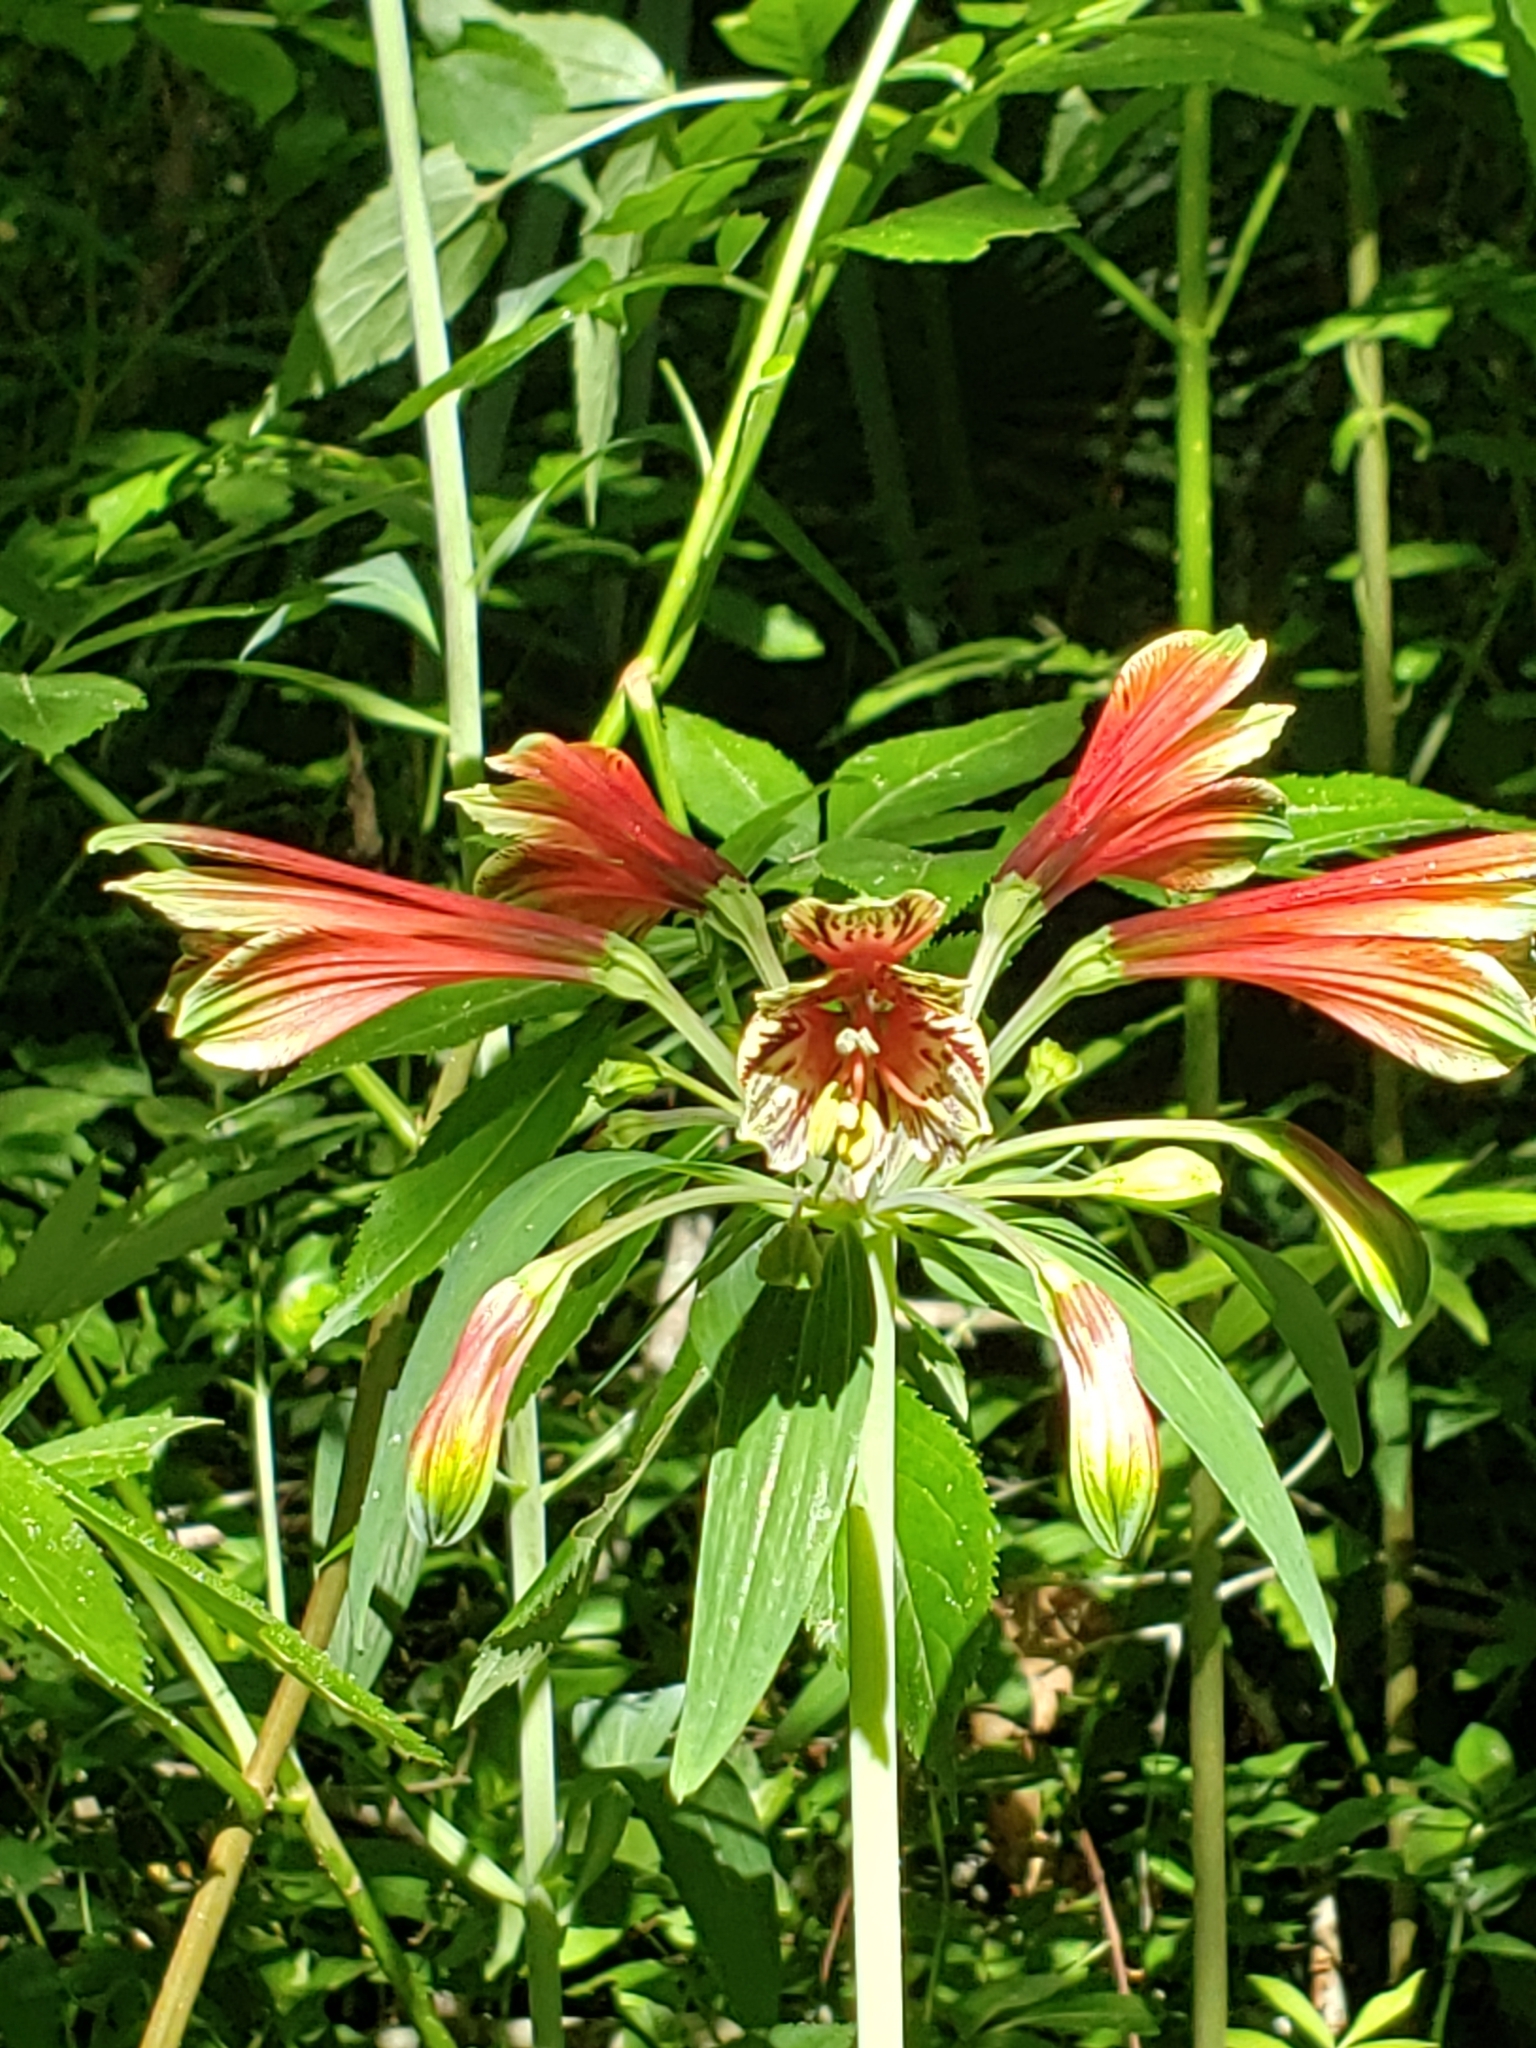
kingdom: Plantae
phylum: Tracheophyta
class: Liliopsida
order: Liliales
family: Alstroemeriaceae
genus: Alstroemeria
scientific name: Alstroemeria psittacina
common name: Peruvian-lily
